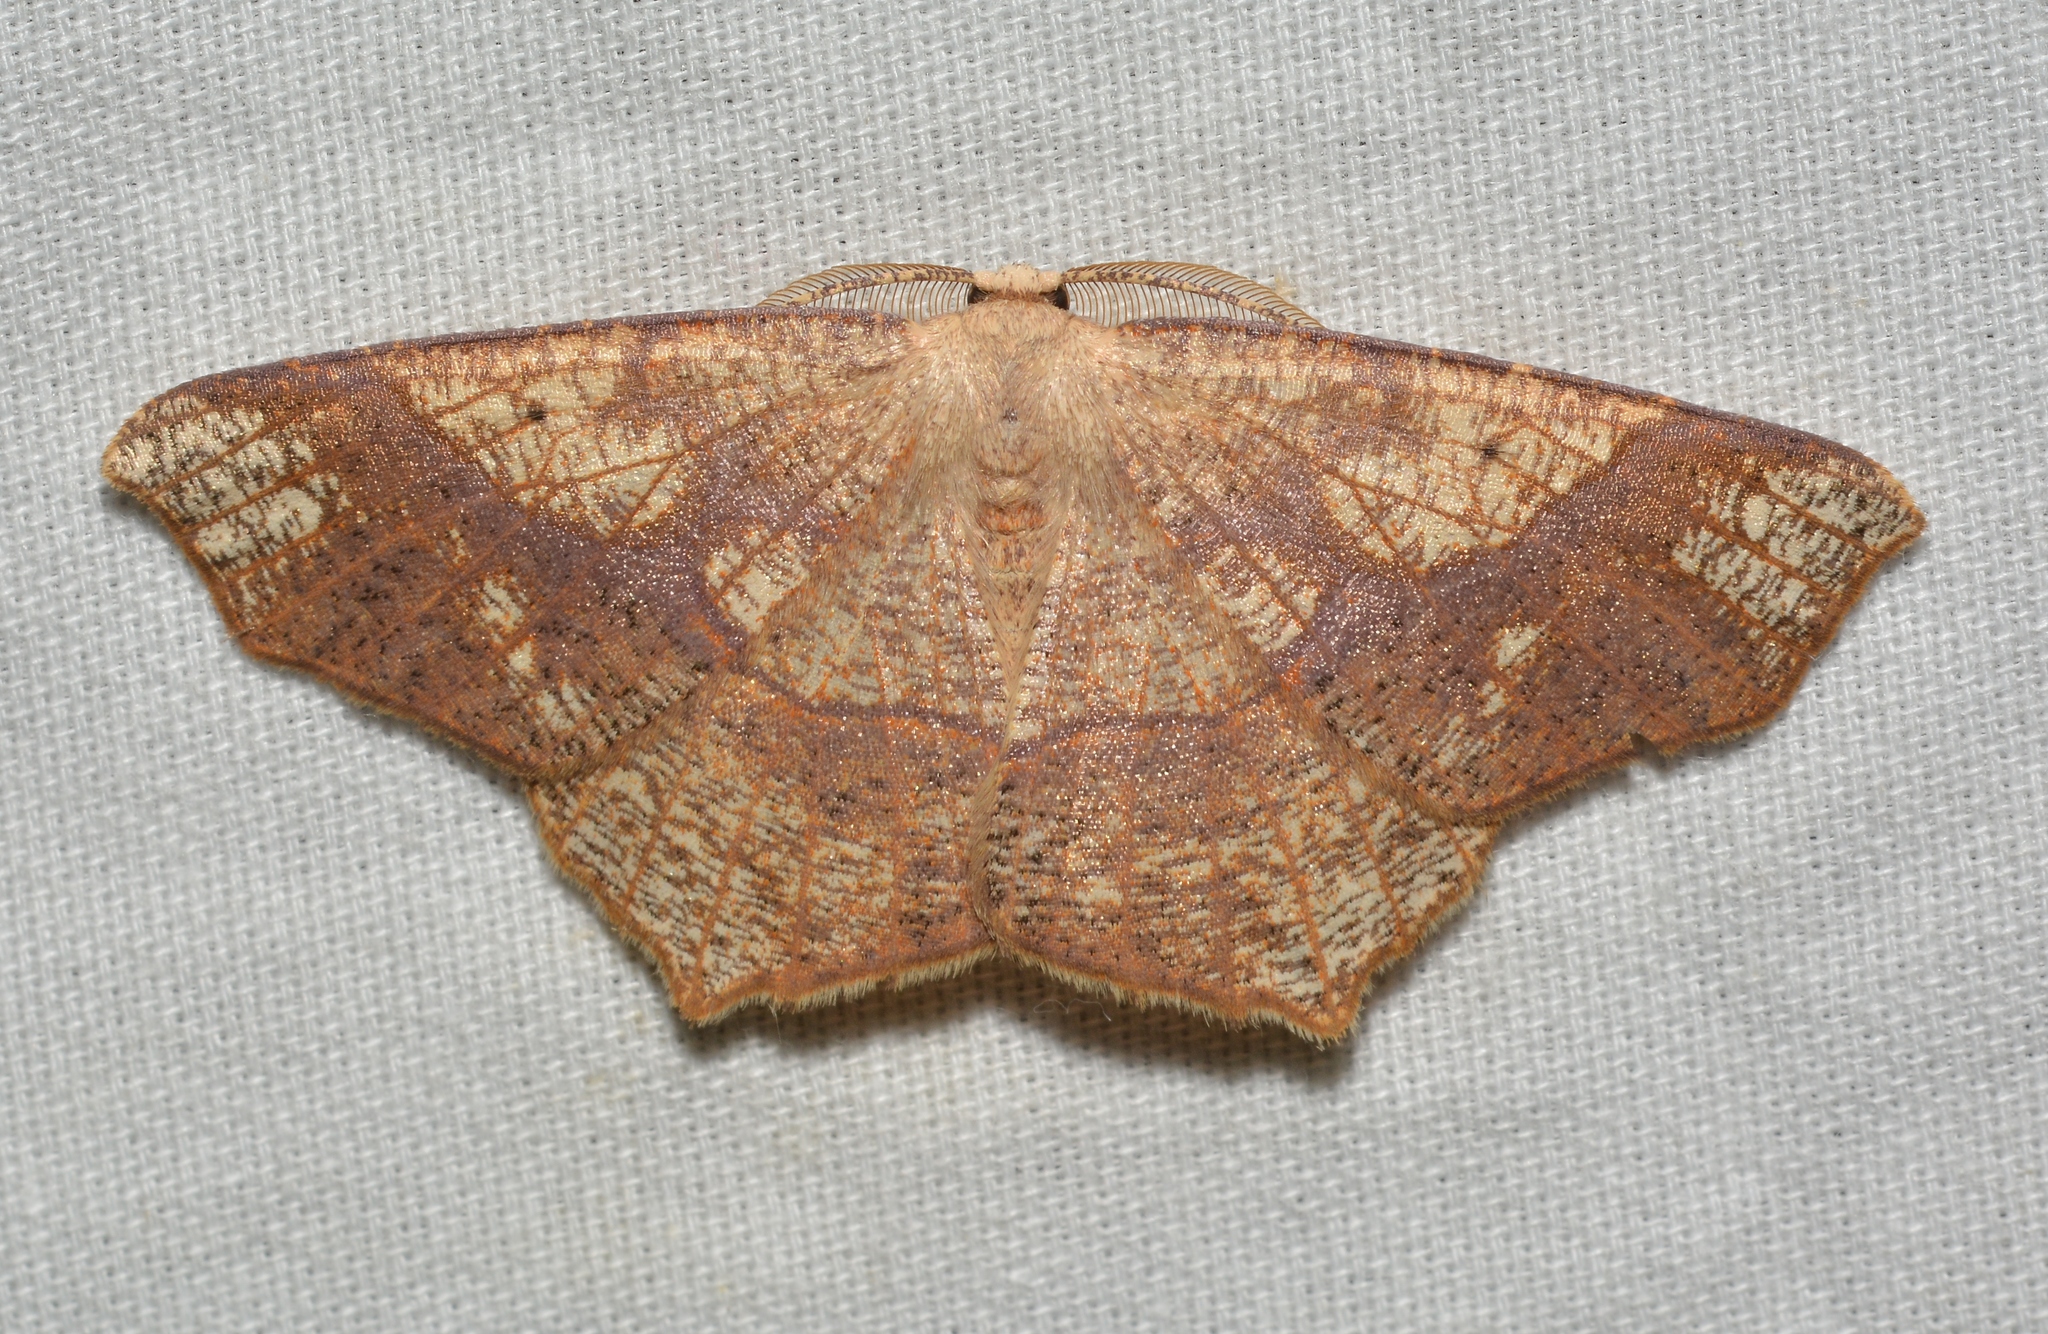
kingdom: Animalia
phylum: Arthropoda
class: Insecta
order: Lepidoptera
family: Geometridae
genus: Besma
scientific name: Besma quercivoraria
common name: Oak besma
